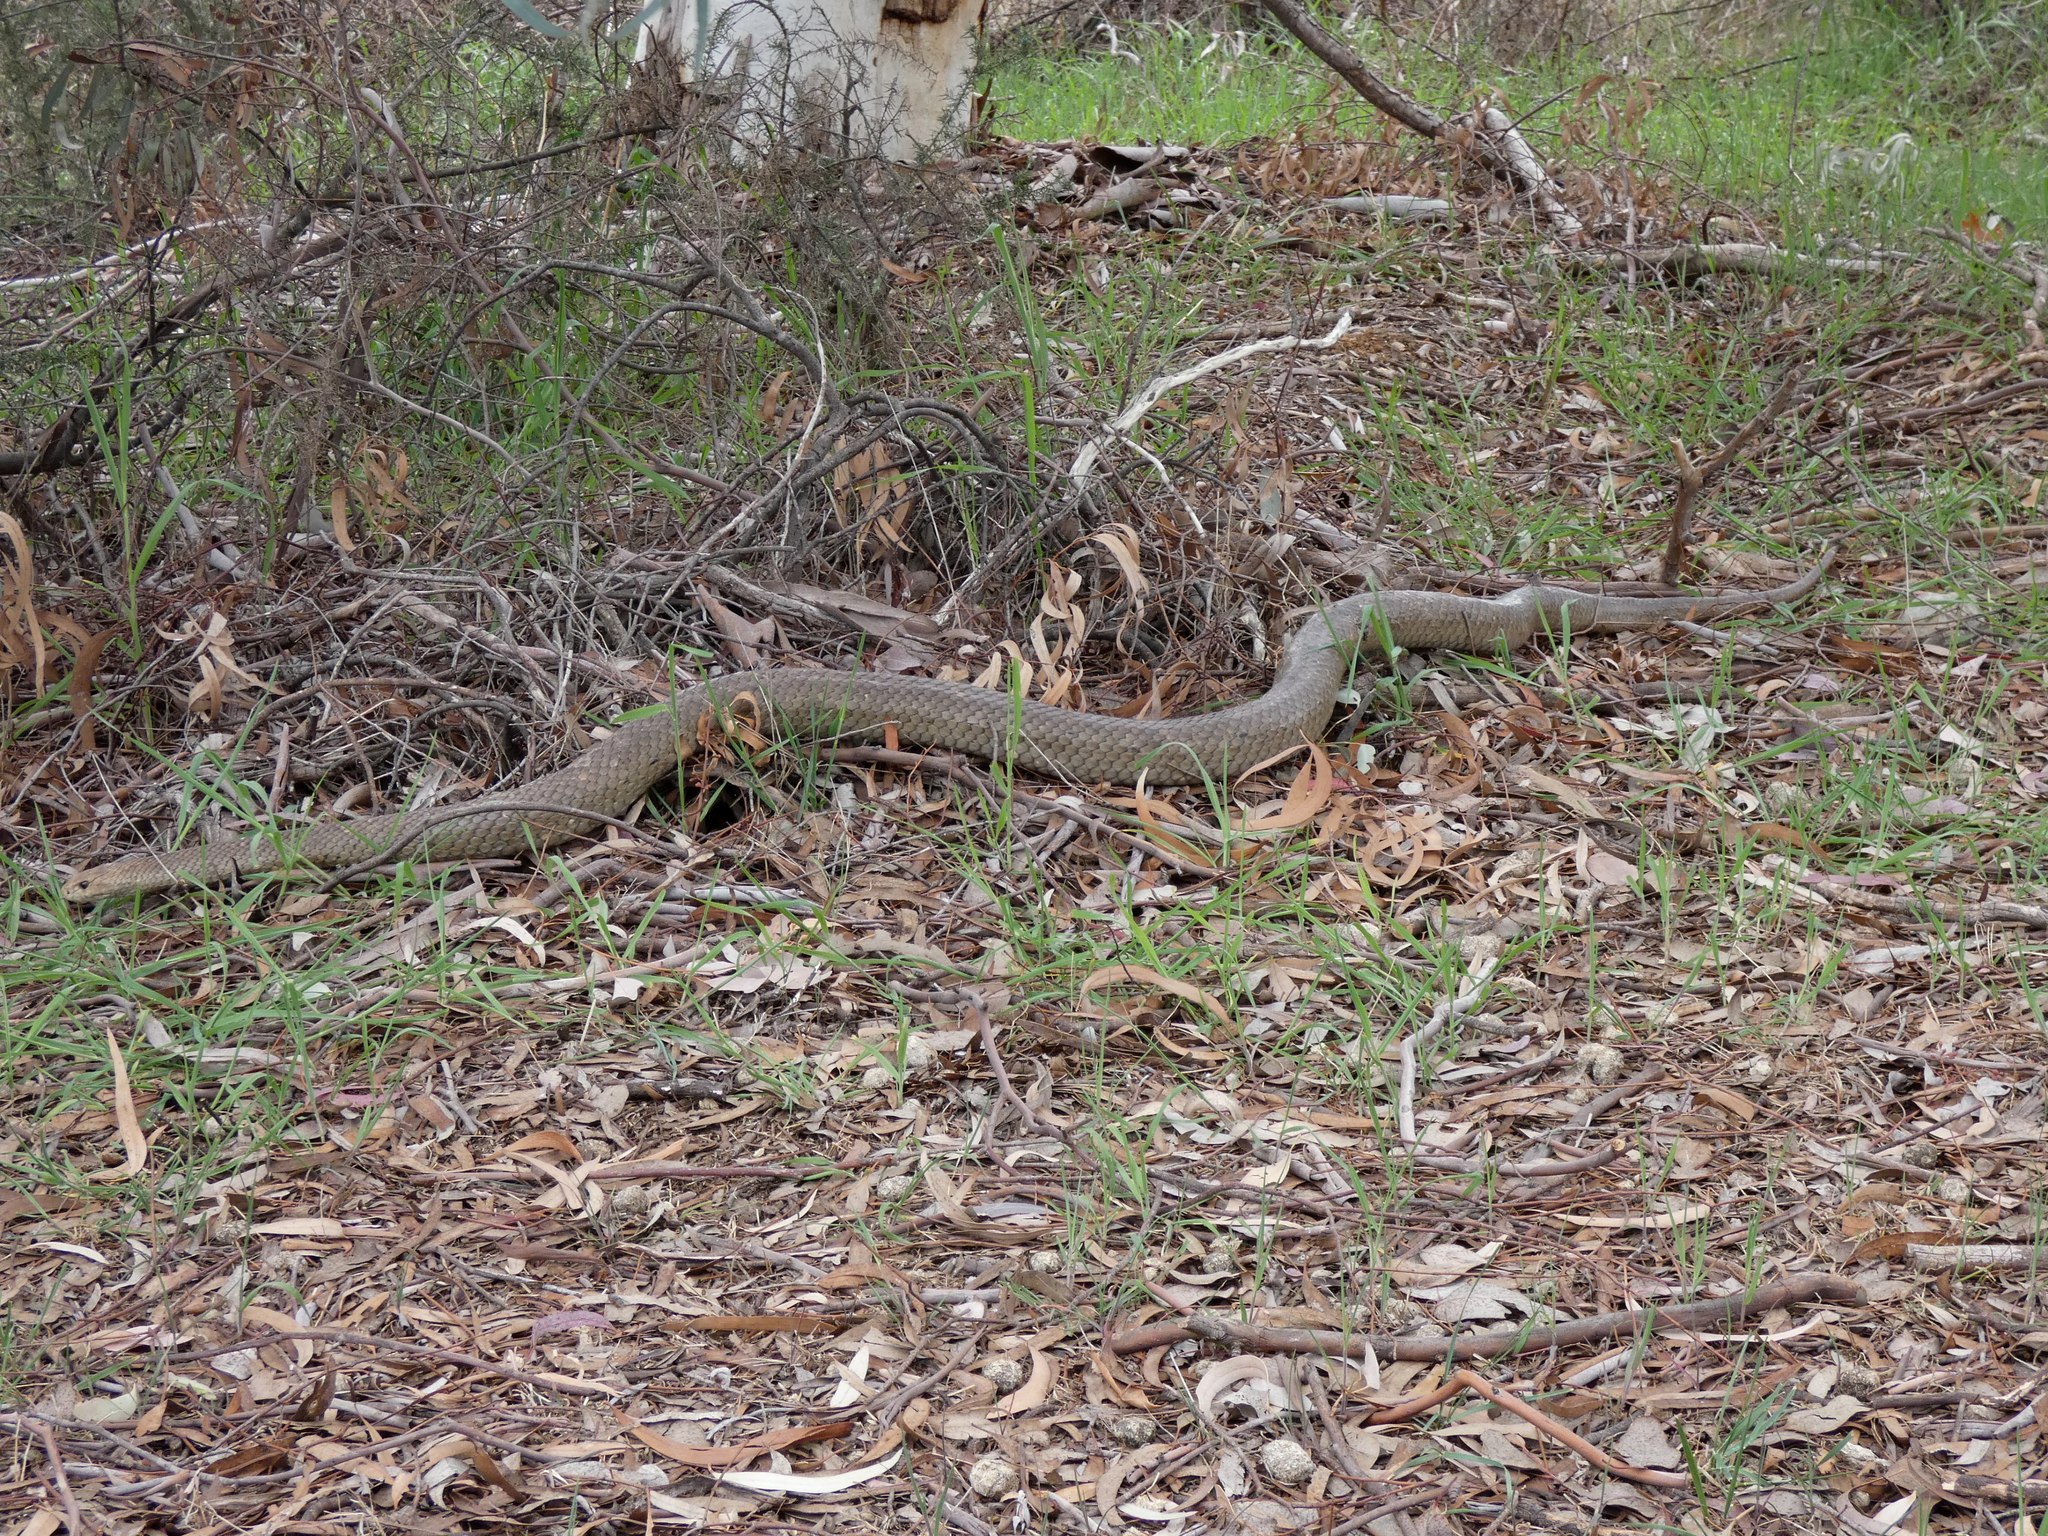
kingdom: Animalia
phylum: Chordata
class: Squamata
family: Elapidae
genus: Pseudonaja
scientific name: Pseudonaja textilis
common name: Eastern brown snake
